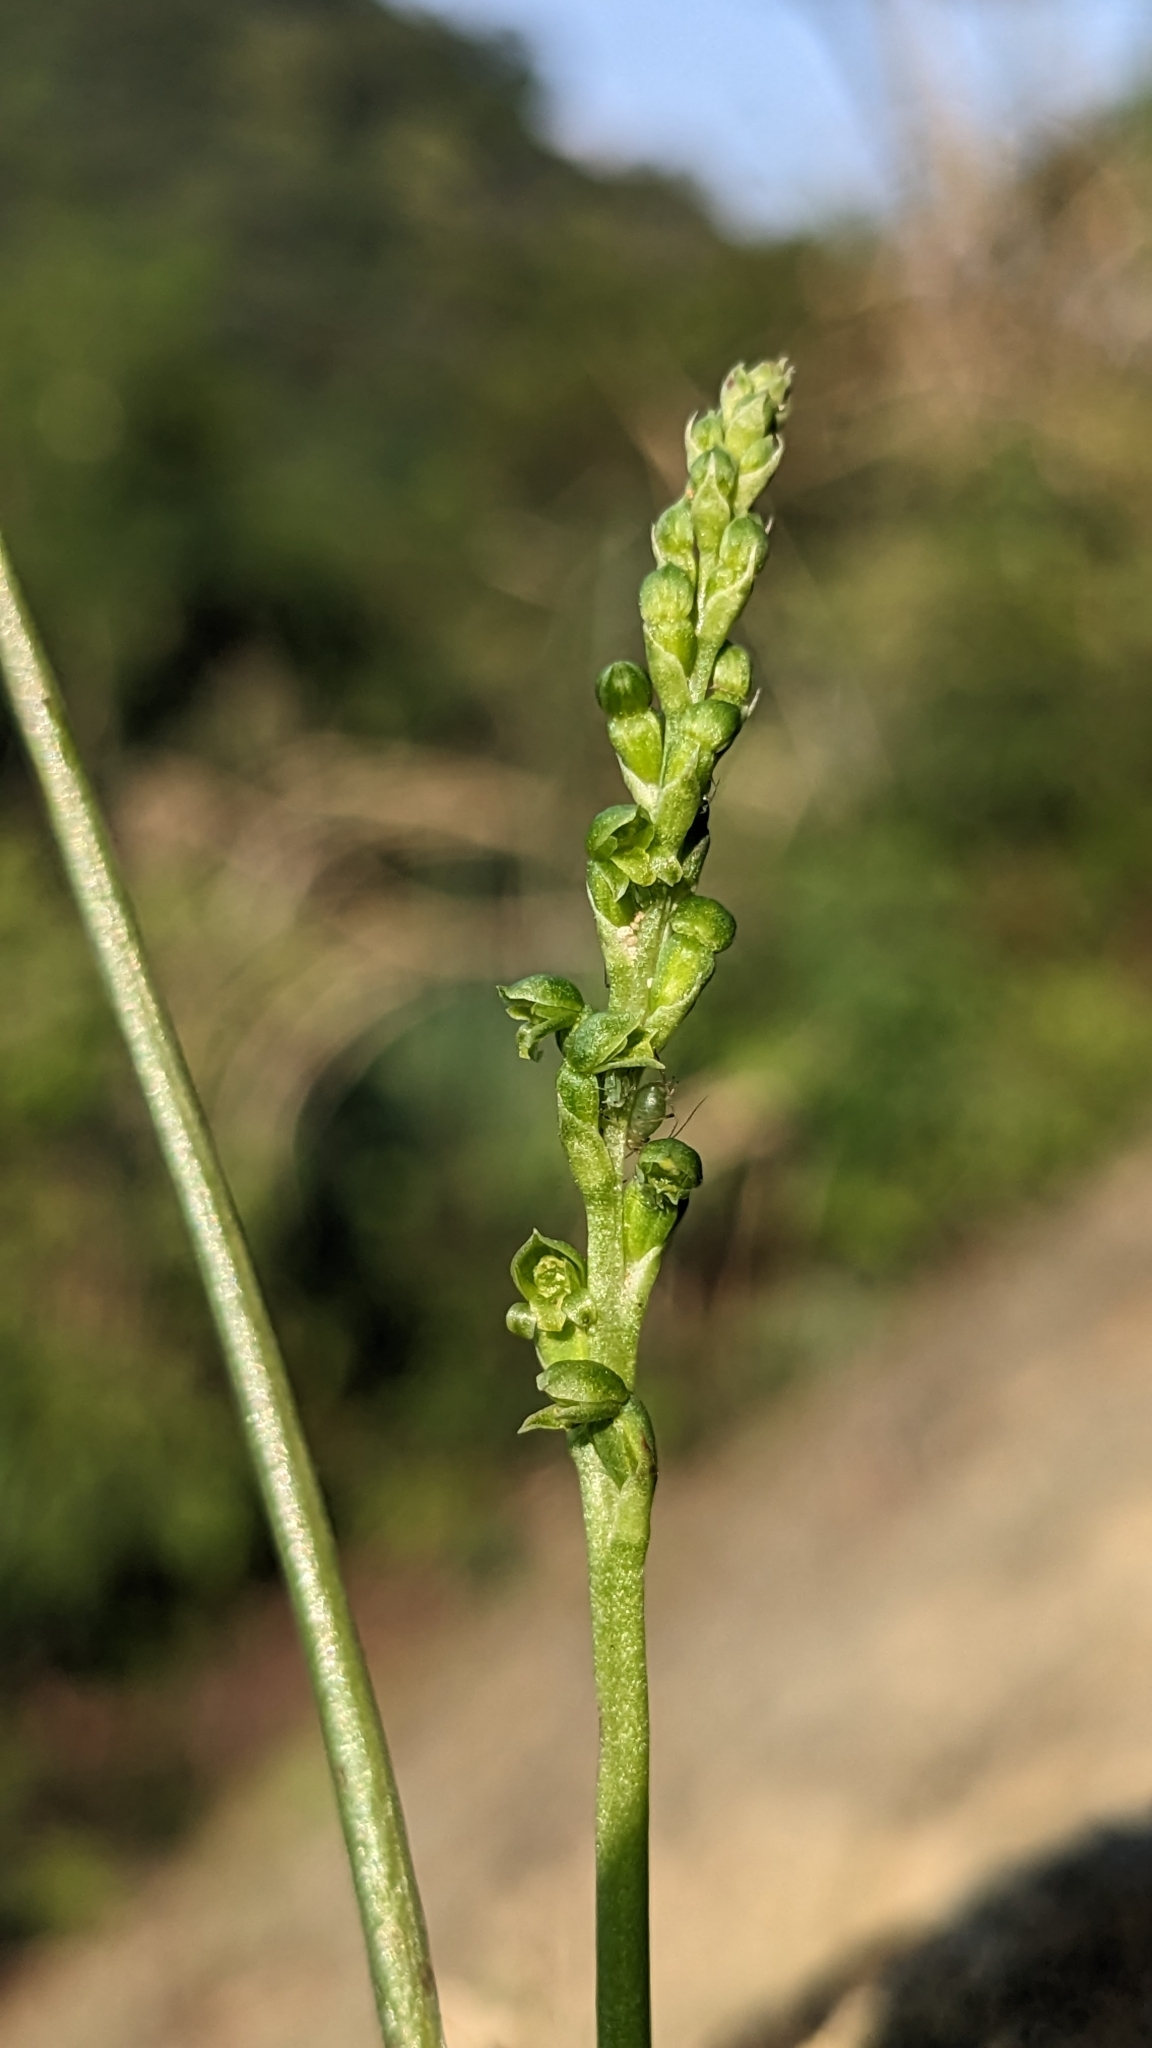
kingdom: Plantae
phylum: Tracheophyta
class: Liliopsida
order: Asparagales
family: Orchidaceae
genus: Microtis
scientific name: Microtis unifolia
